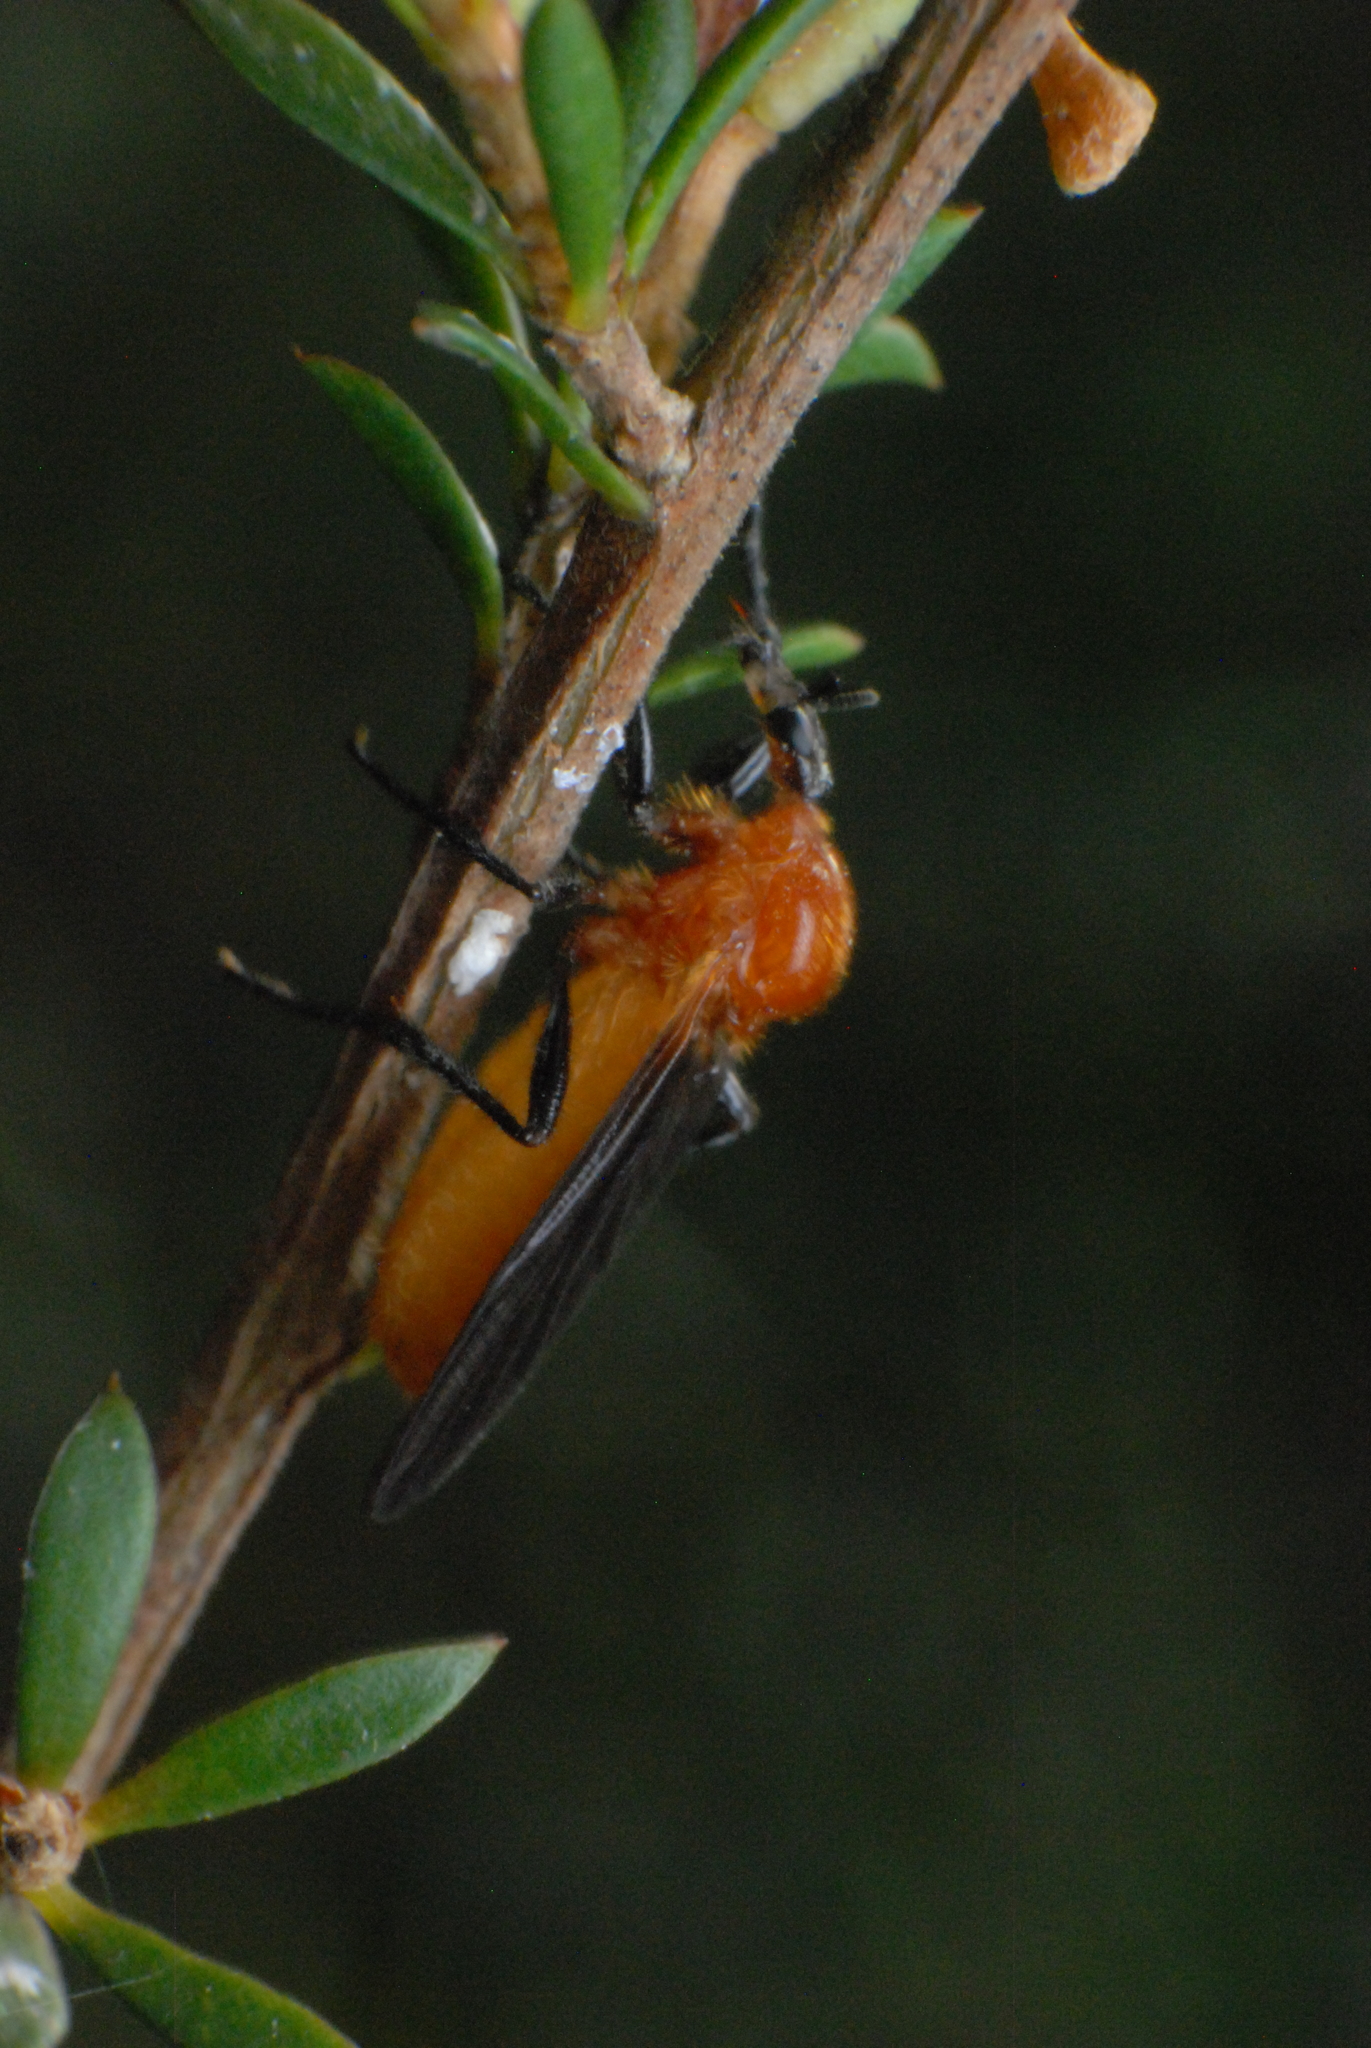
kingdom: Animalia
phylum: Arthropoda
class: Insecta
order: Diptera
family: Bibionidae
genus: Bibio
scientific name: Bibio imitator
